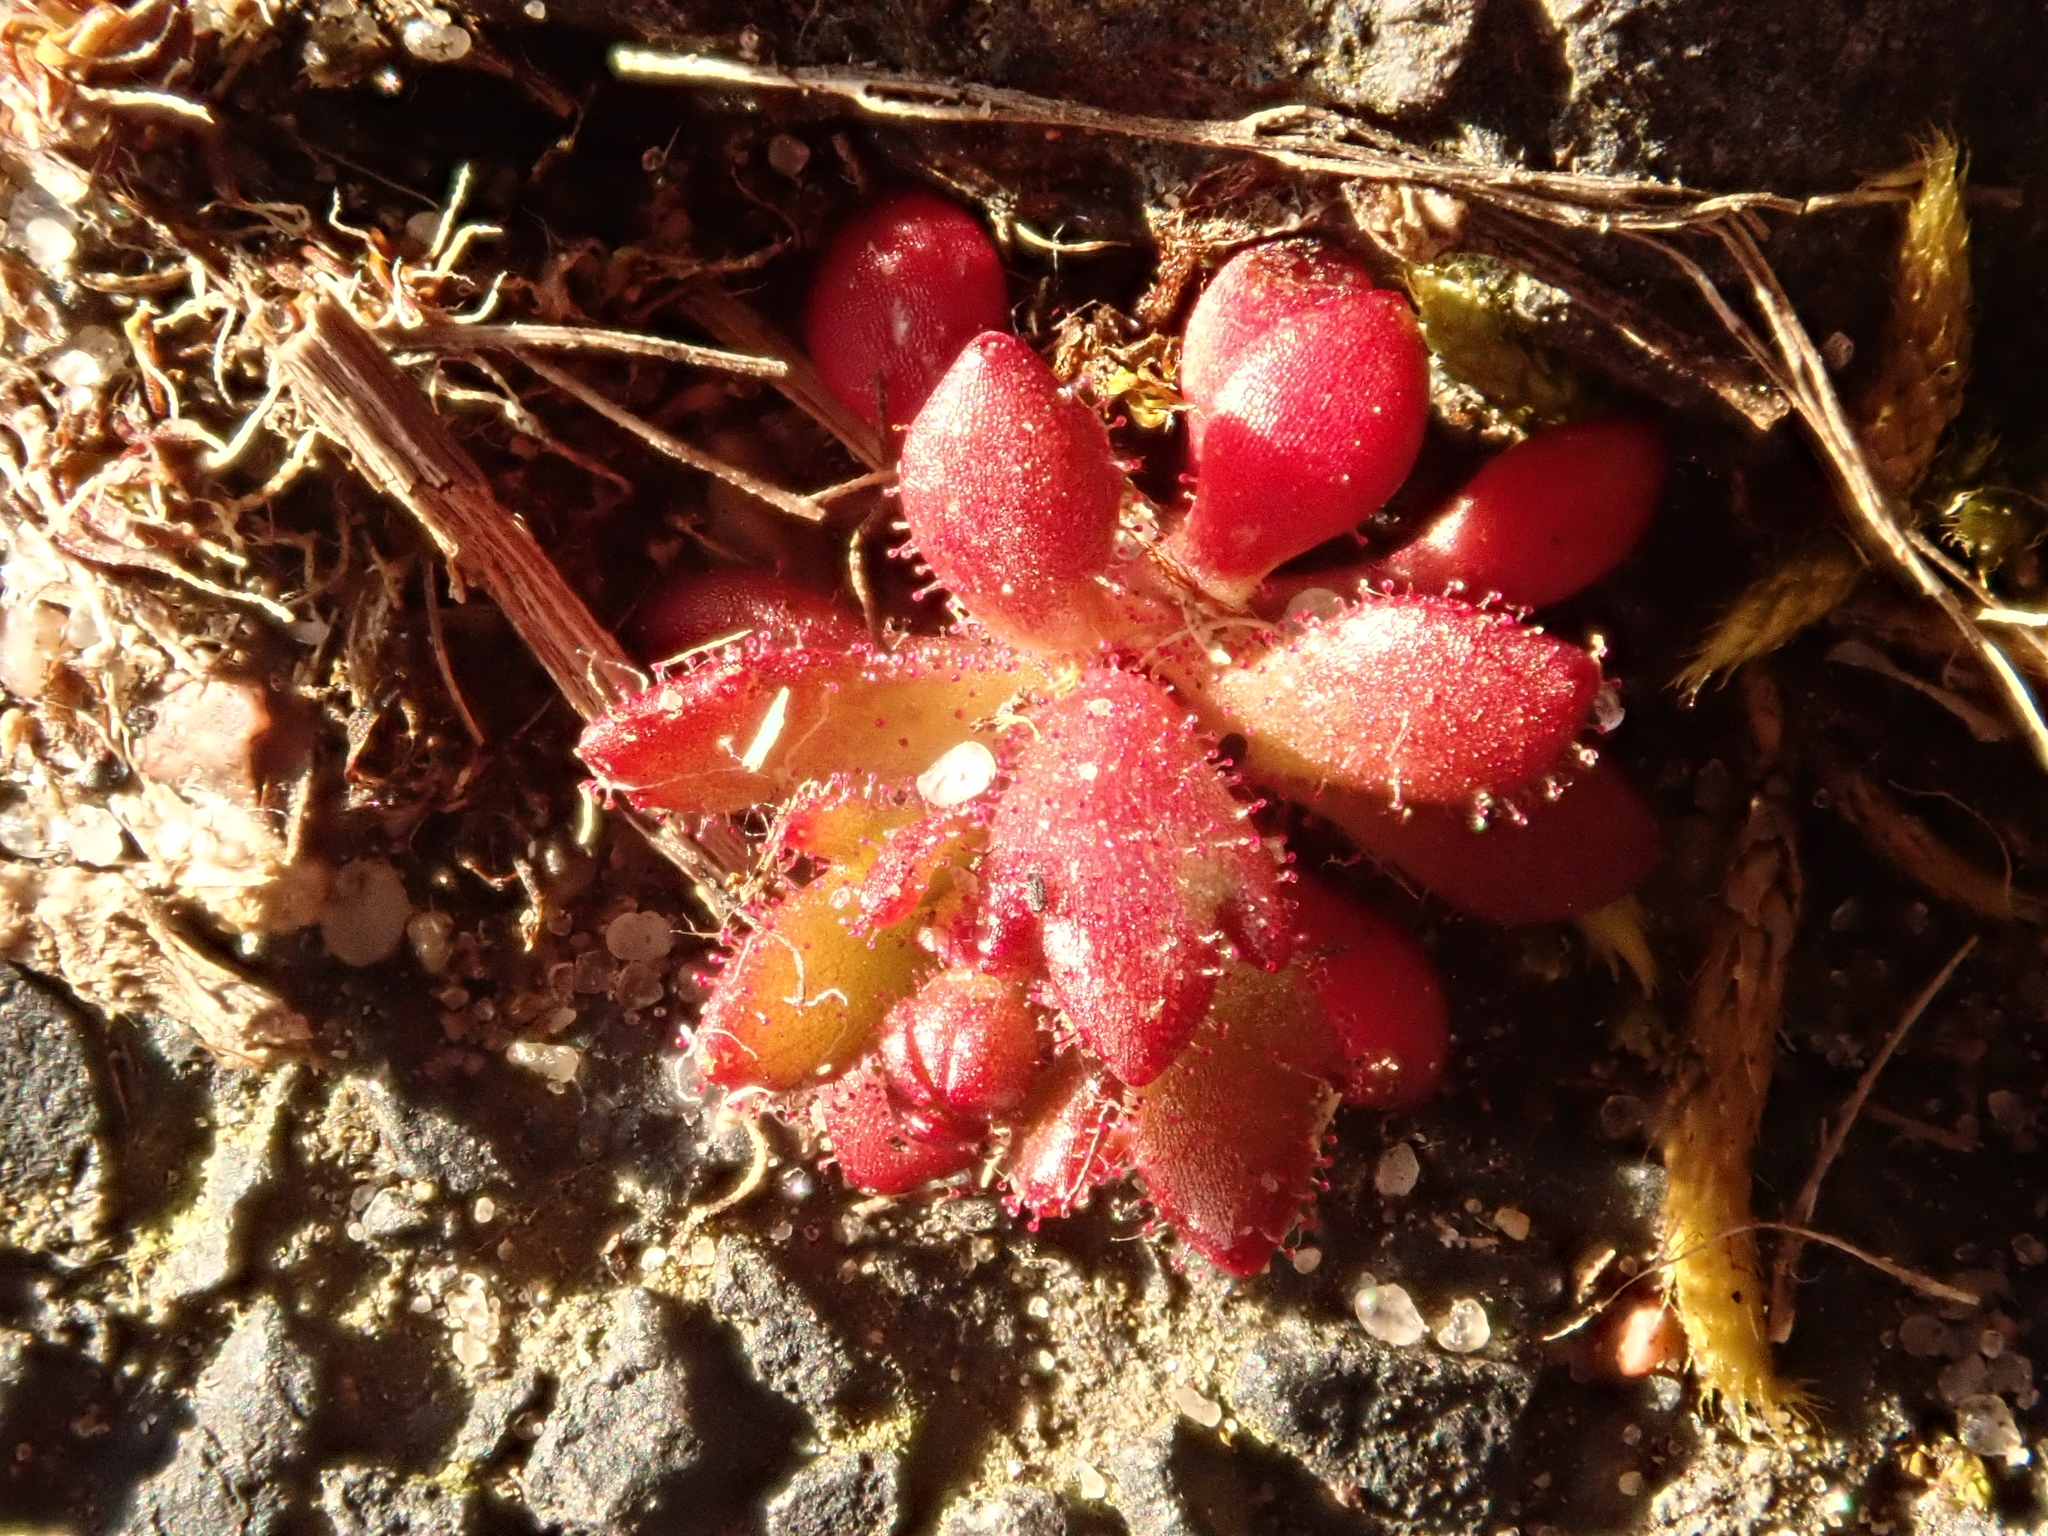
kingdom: Plantae
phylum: Tracheophyta
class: Magnoliopsida
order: Saxifragales
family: Saxifragaceae
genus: Saxifraga
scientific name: Saxifraga tridactylites
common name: Rue-leaved saxifrage
